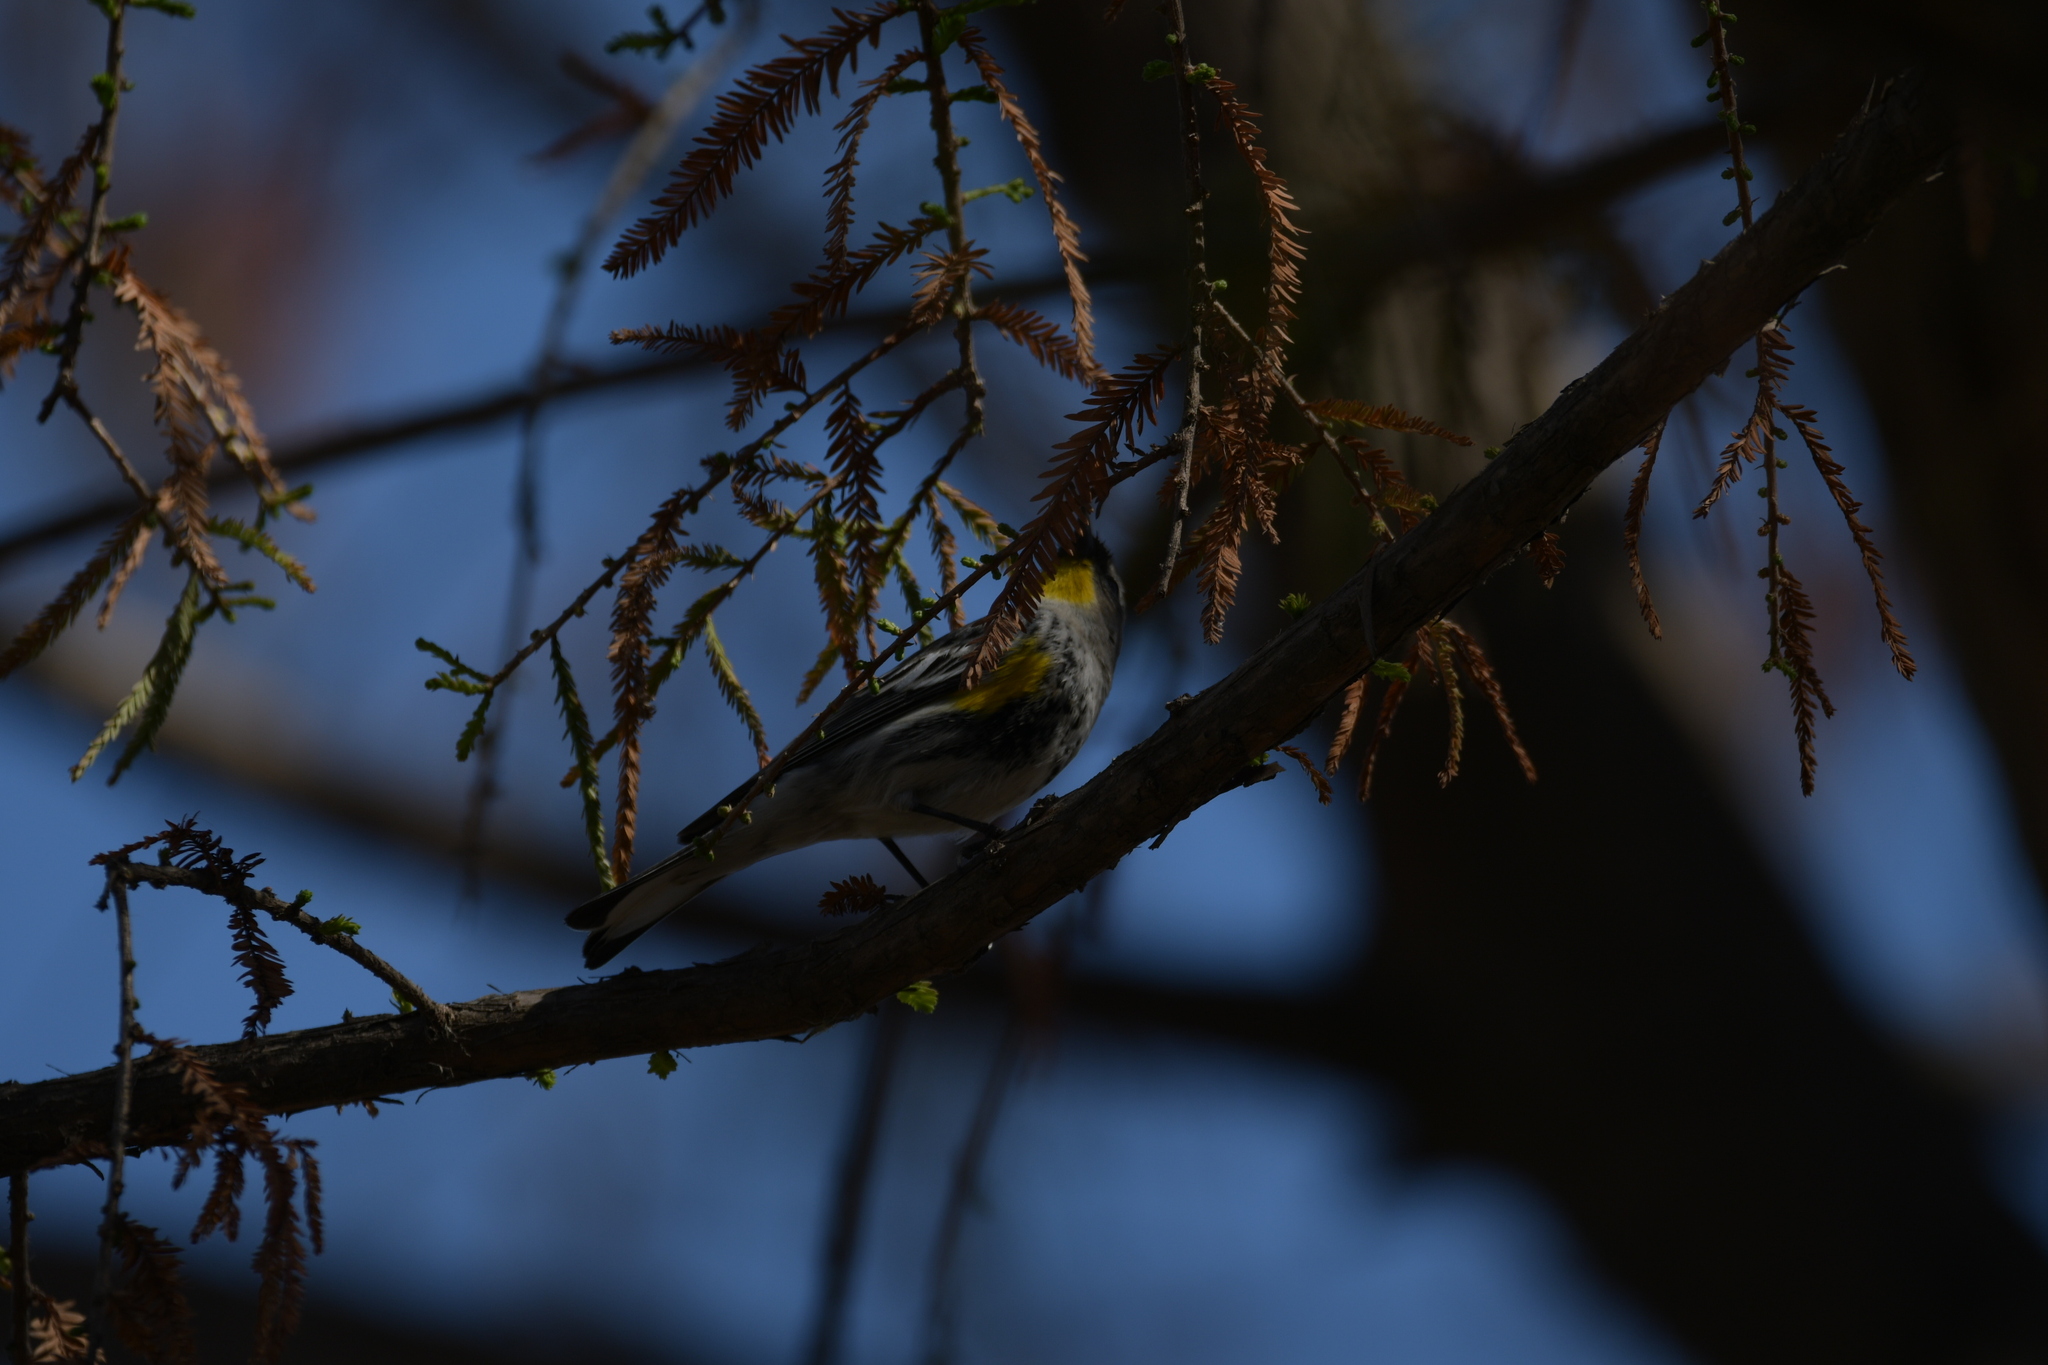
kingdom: Animalia
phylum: Chordata
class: Aves
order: Passeriformes
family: Parulidae
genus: Setophaga
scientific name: Setophaga coronata
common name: Myrtle warbler
